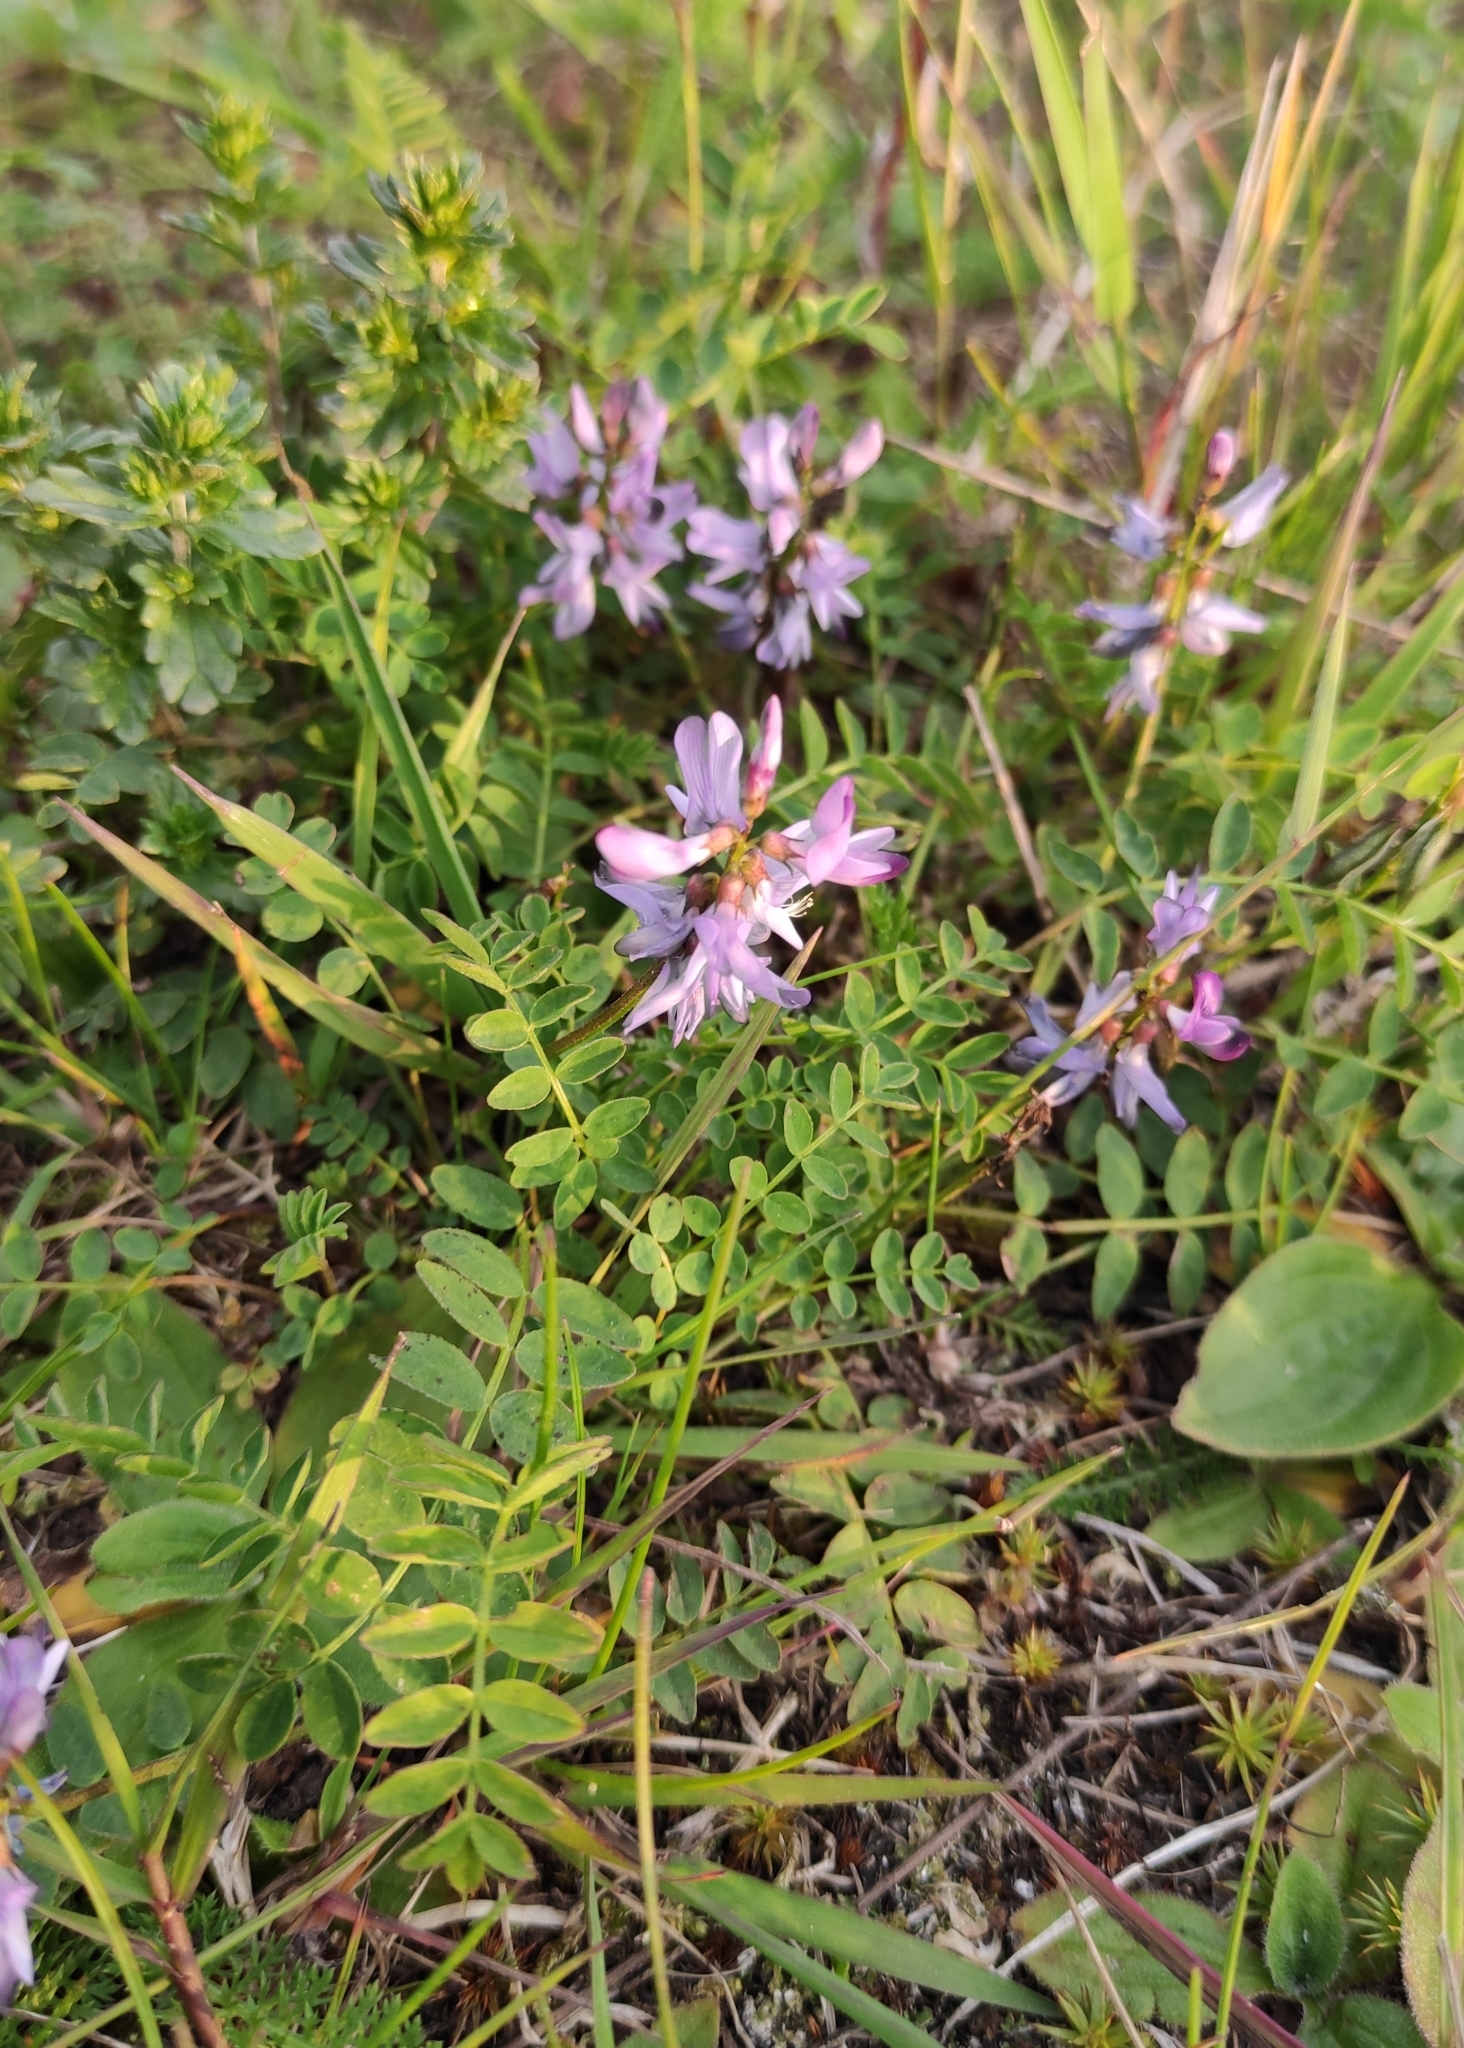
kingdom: Plantae
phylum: Tracheophyta
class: Magnoliopsida
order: Fabales
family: Fabaceae
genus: Astragalus
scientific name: Astragalus alpinus
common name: Alpine milk-vetch
